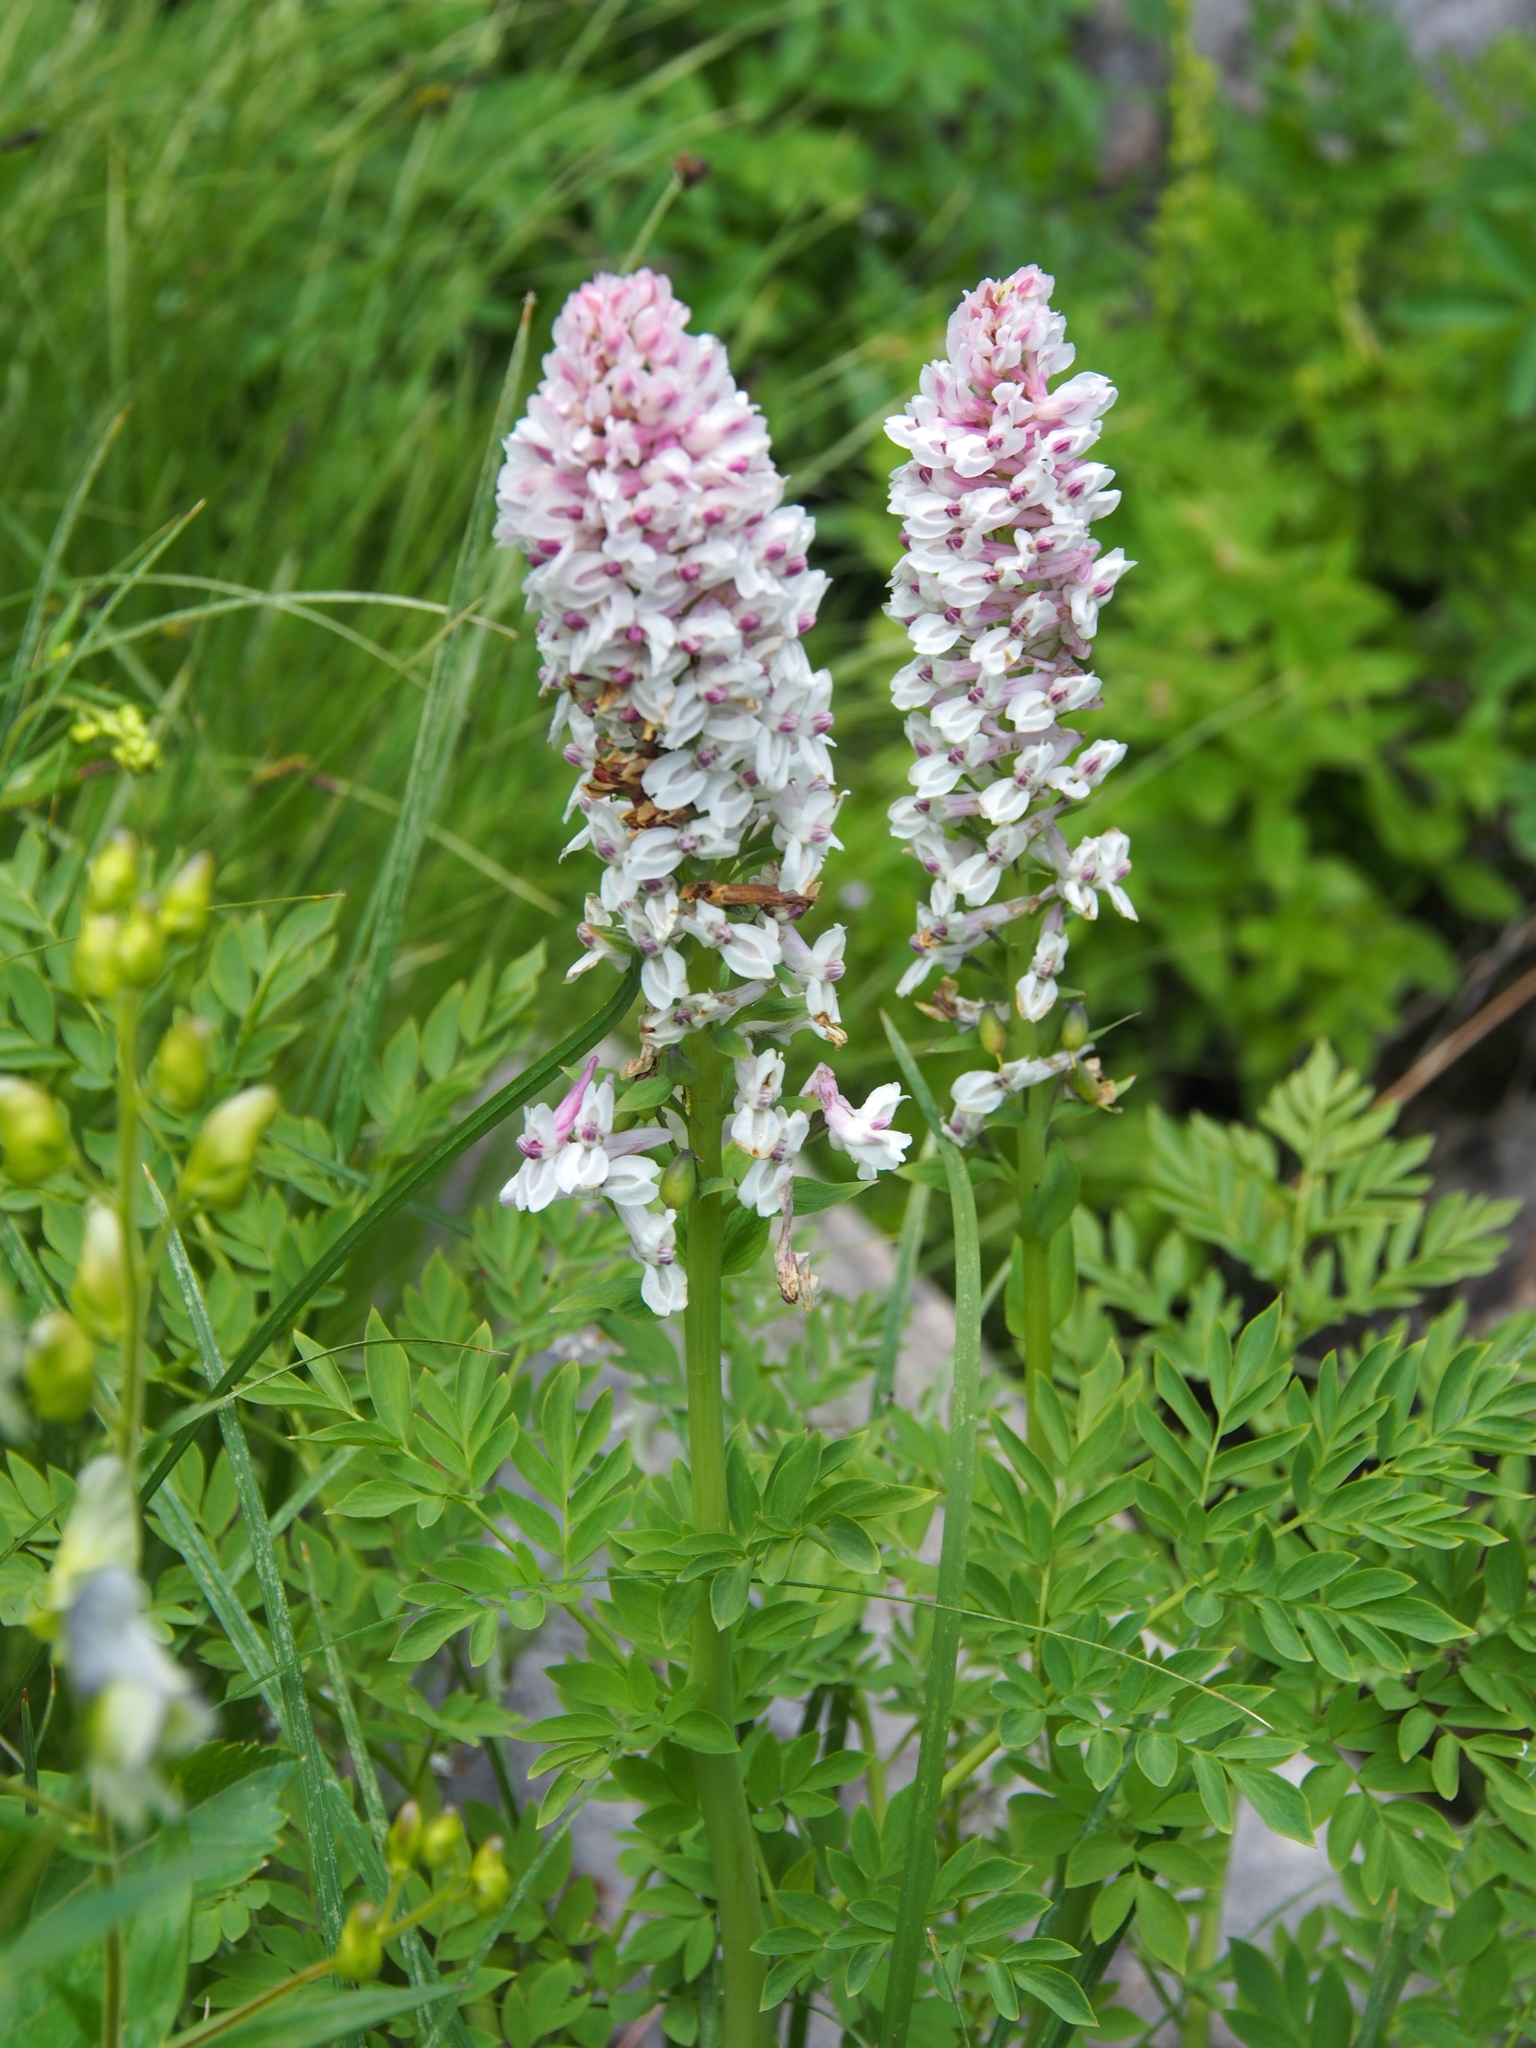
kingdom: Plantae
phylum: Tracheophyta
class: Magnoliopsida
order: Ranunculales
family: Papaveraceae
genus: Corydalis
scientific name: Corydalis caseana
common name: Fitweed
